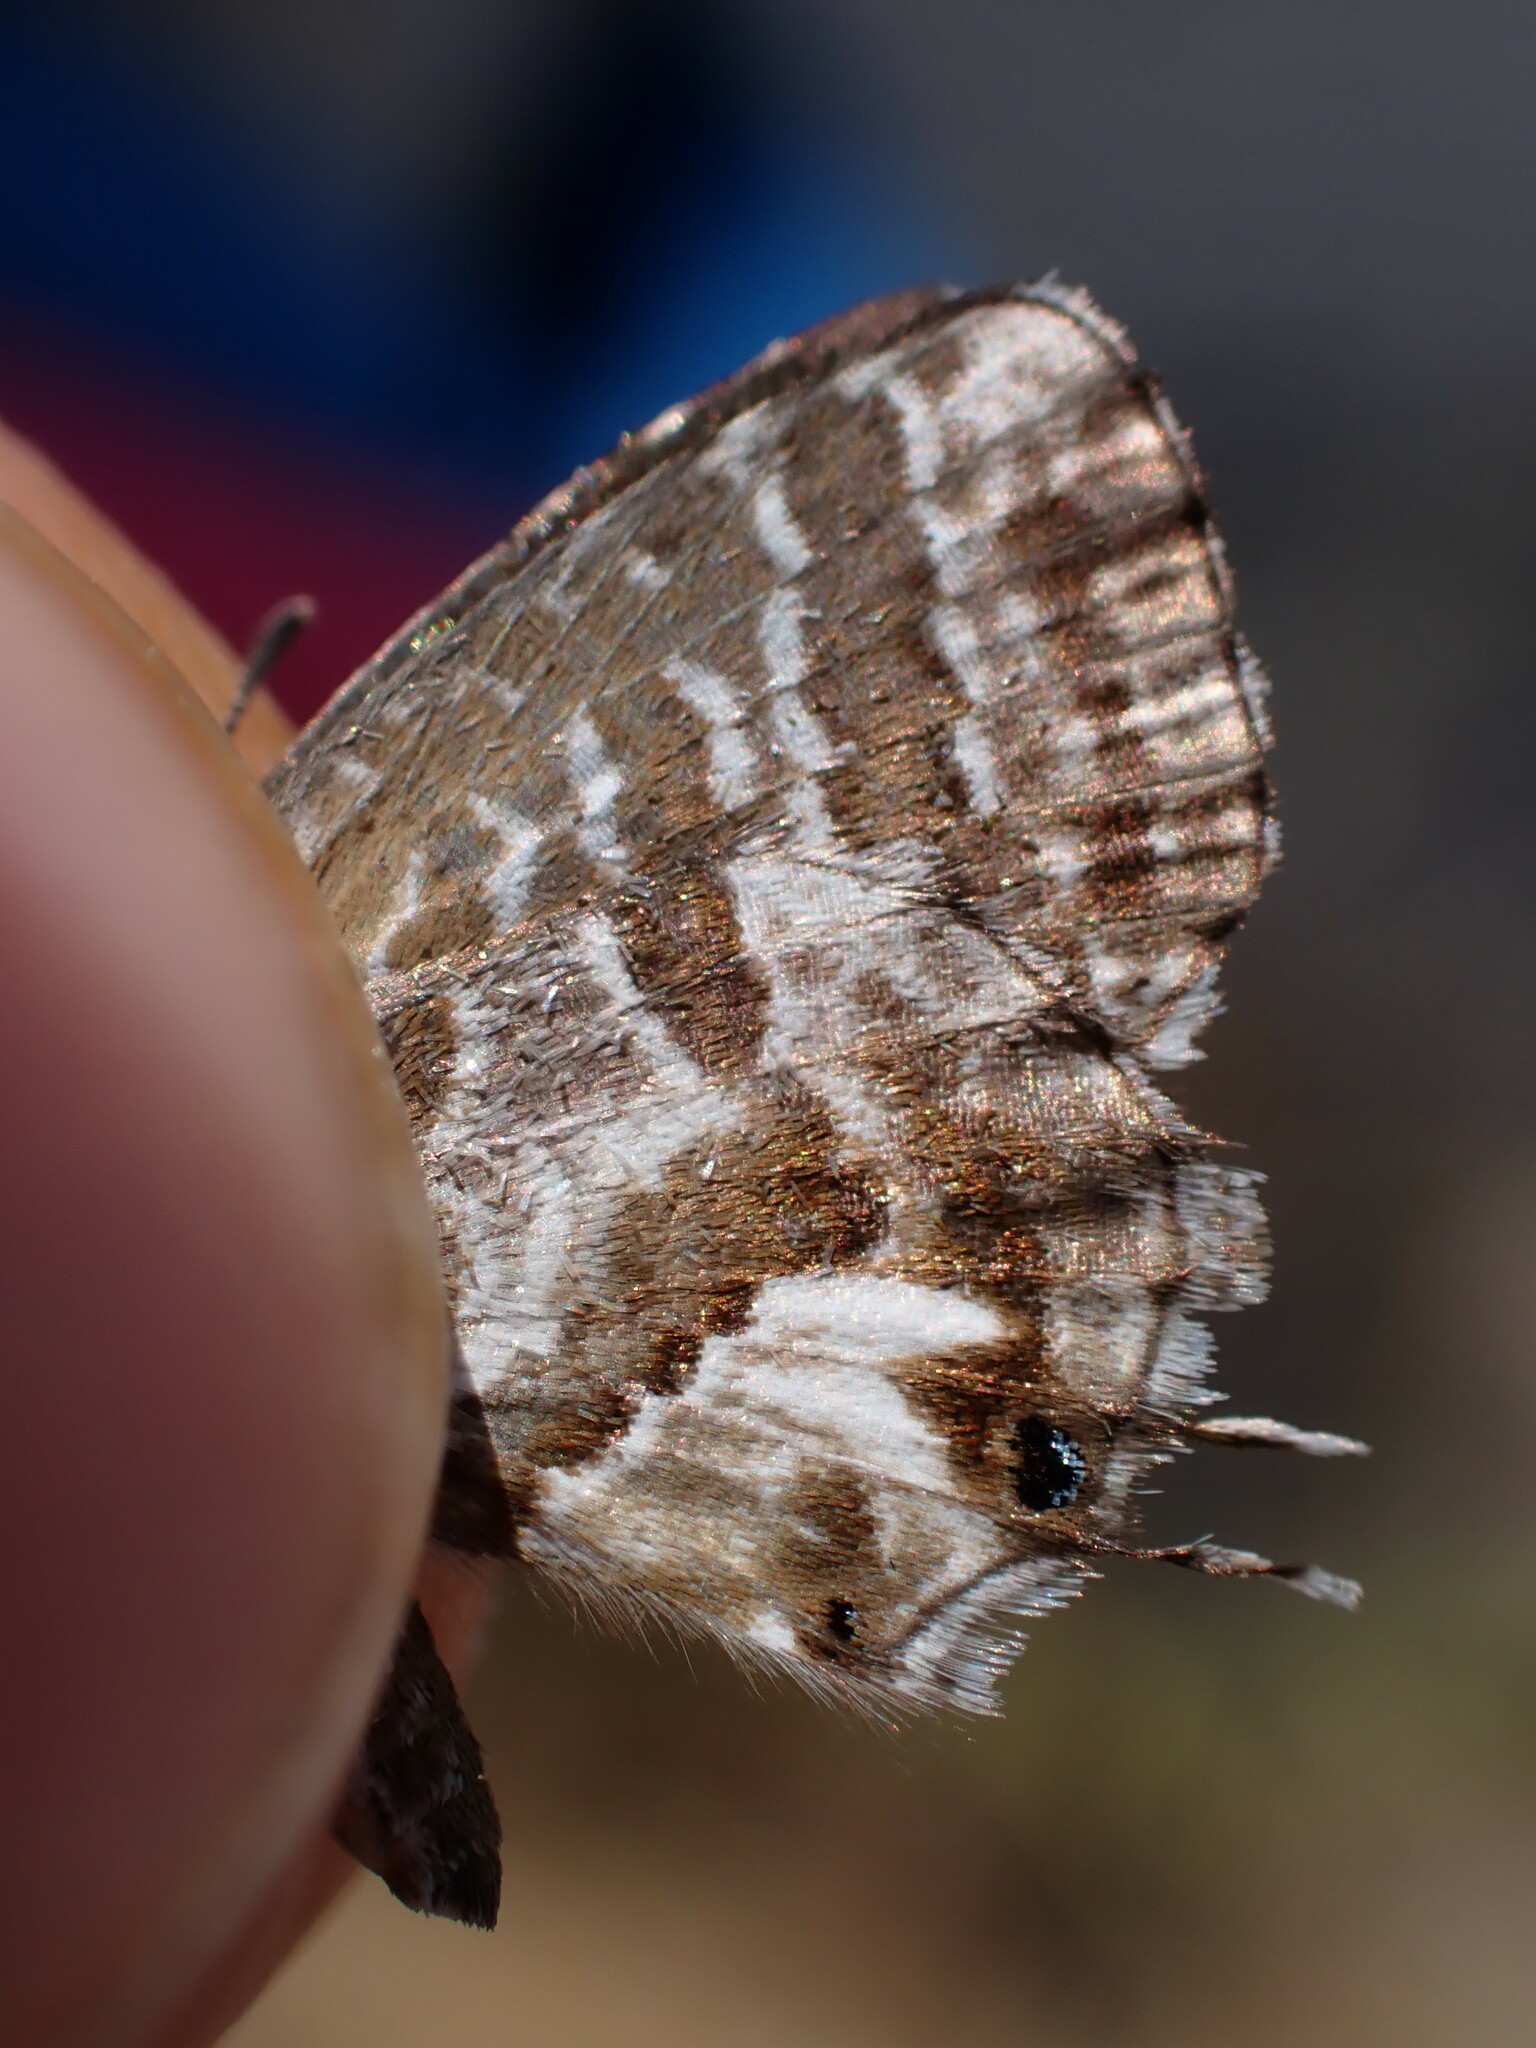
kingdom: Animalia
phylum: Arthropoda
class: Insecta
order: Lepidoptera
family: Lycaenidae
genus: Cacyreus
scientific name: Cacyreus marshalli
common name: Geranium bronze
